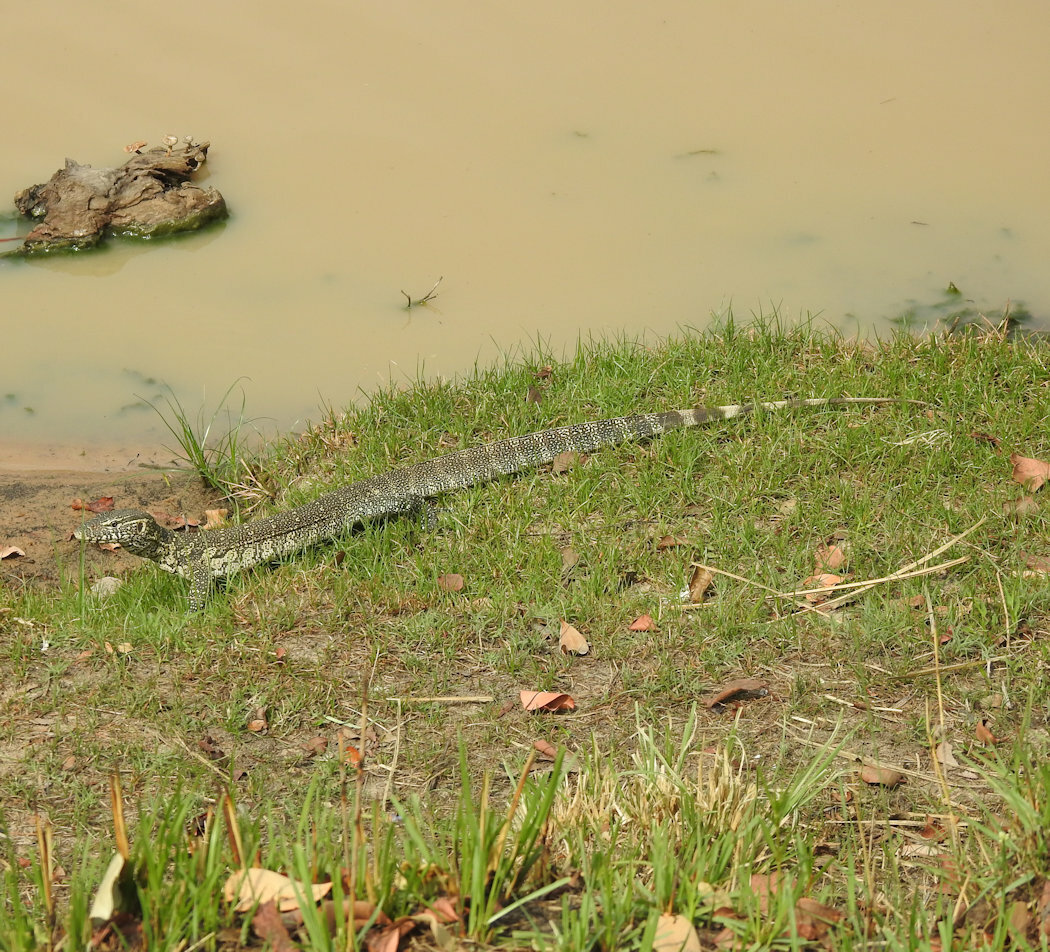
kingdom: Animalia
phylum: Chordata
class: Squamata
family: Varanidae
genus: Varanus
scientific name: Varanus niloticus
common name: Nile monitor
